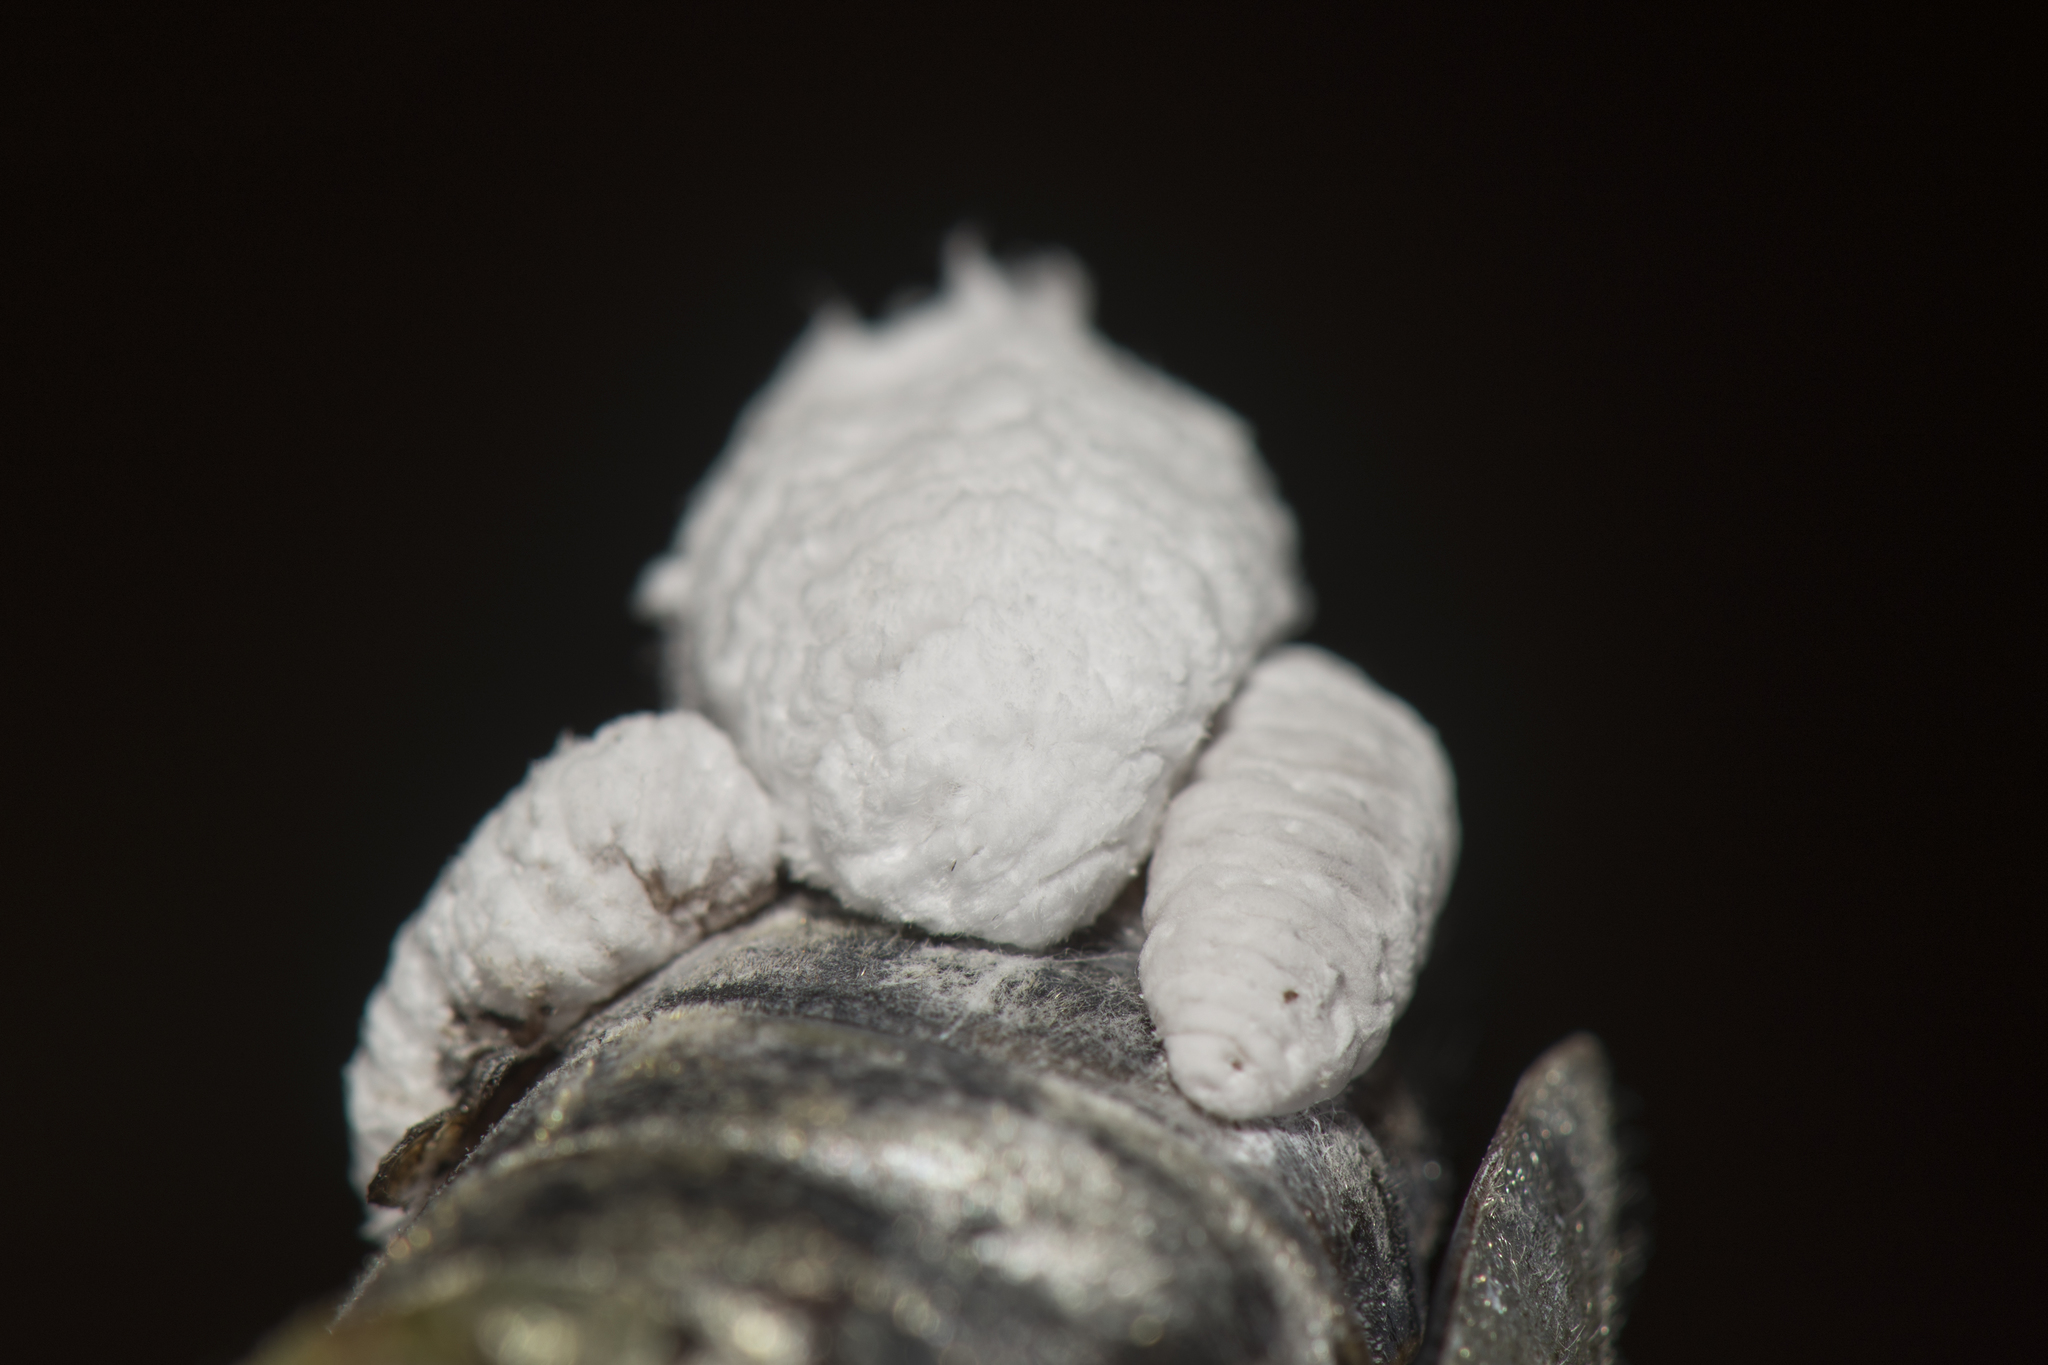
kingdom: Animalia
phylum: Arthropoda
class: Insecta
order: Lepidoptera
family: Epipyropidae
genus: Epipomponia
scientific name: Epipomponia nawai
